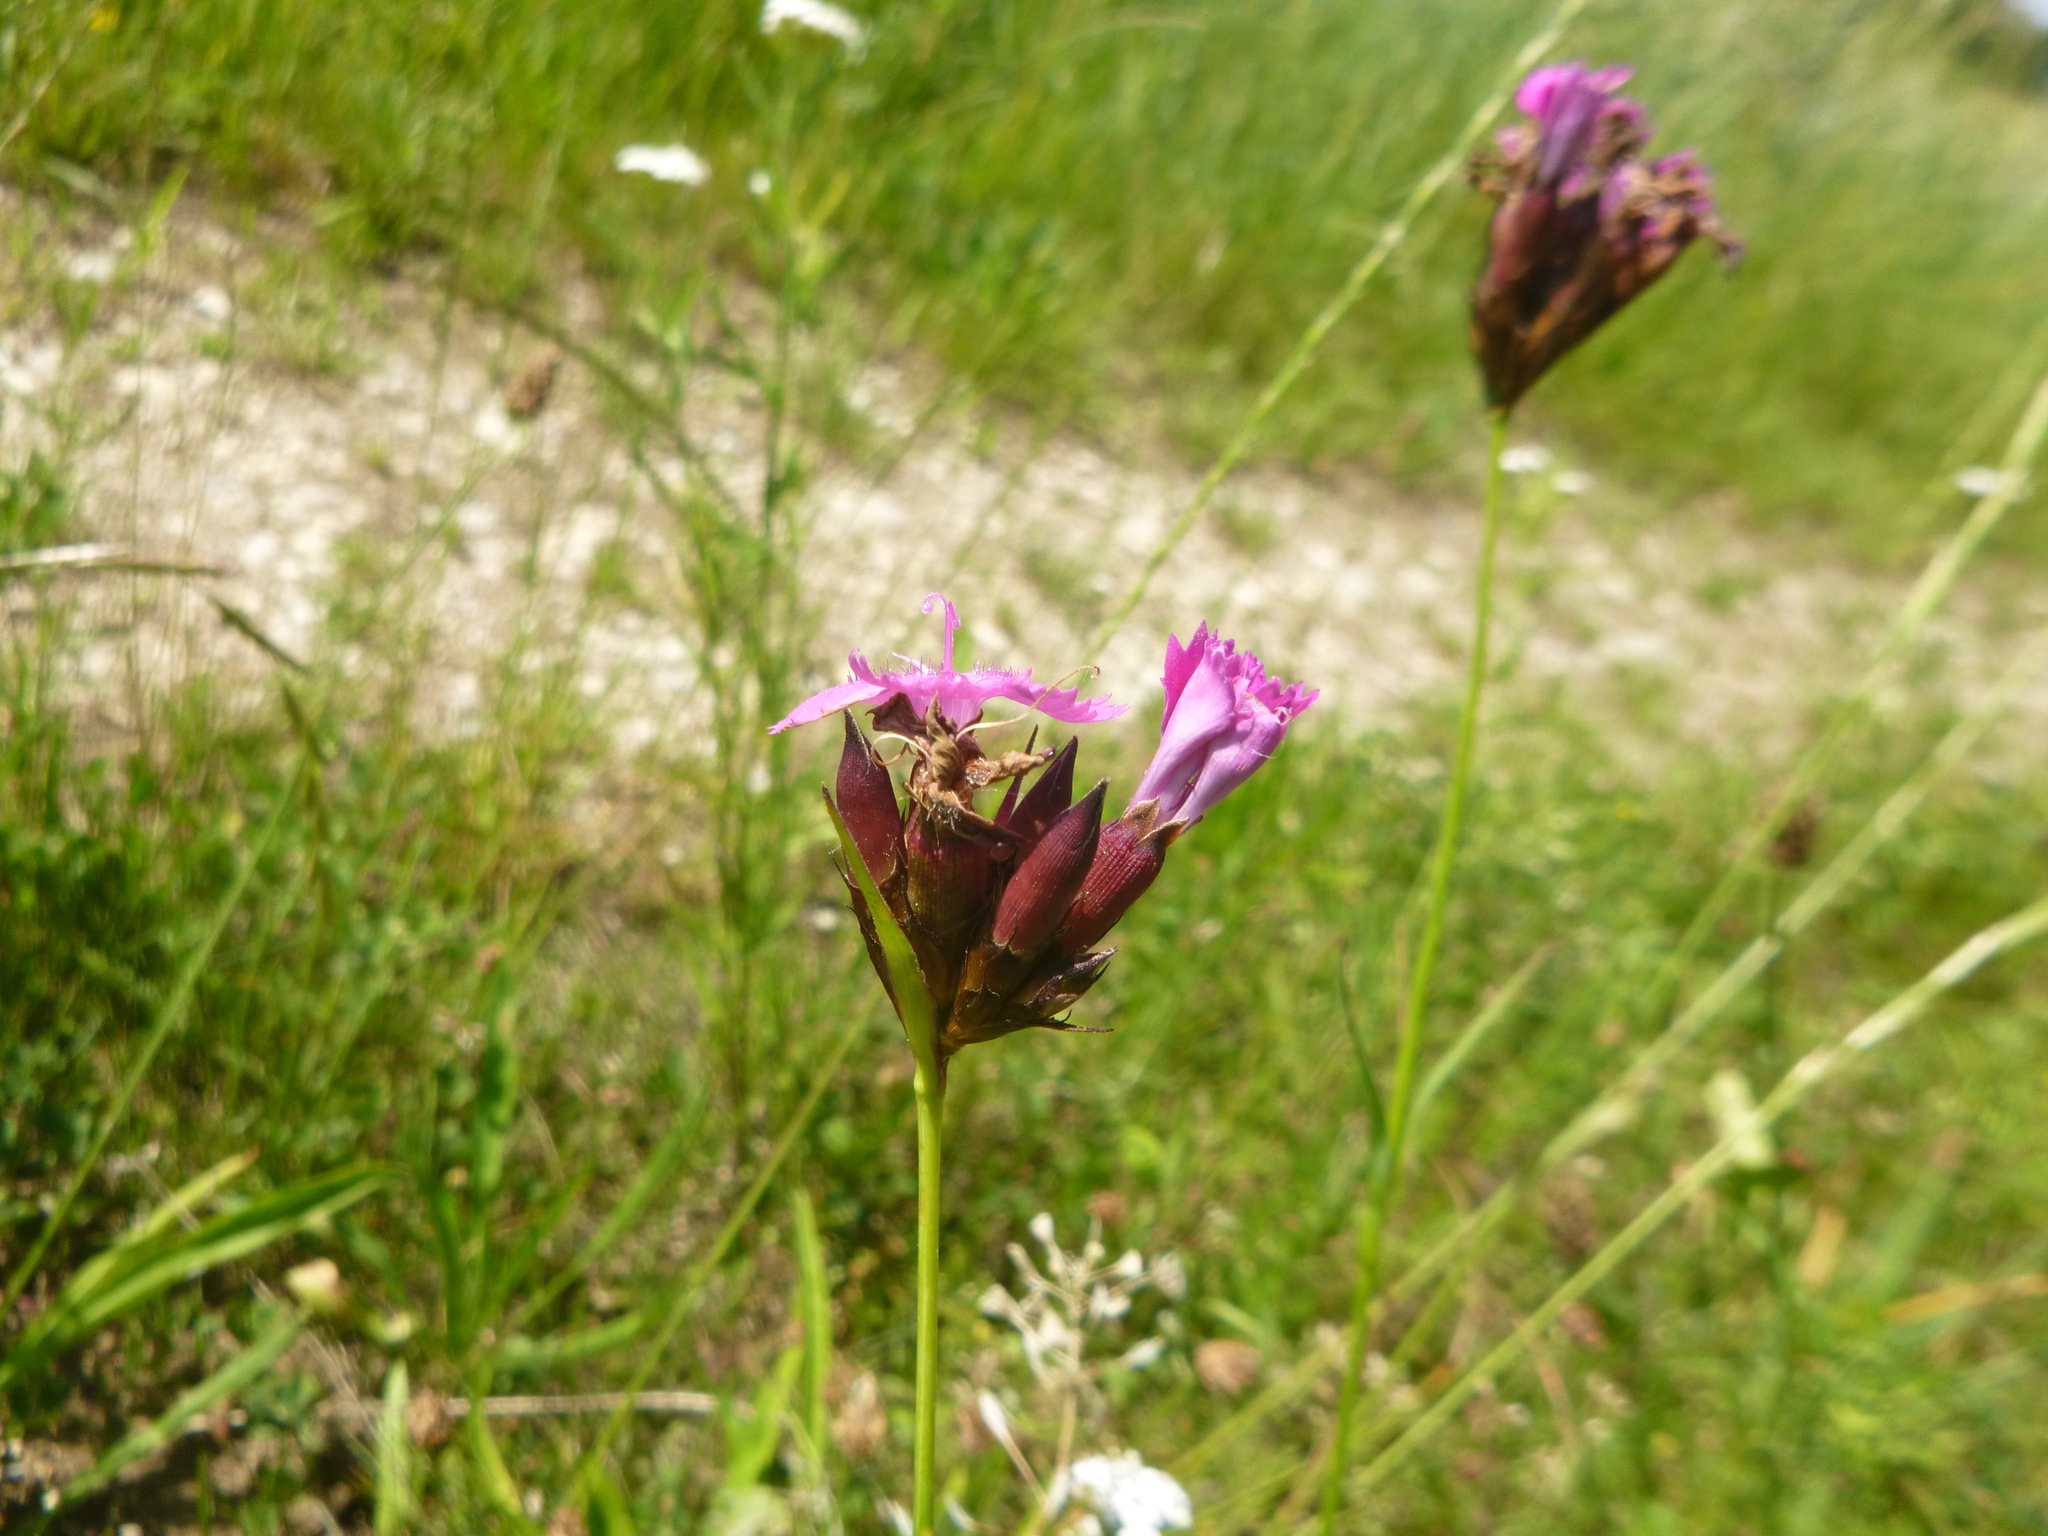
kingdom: Plantae
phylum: Tracheophyta
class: Magnoliopsida
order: Caryophyllales
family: Caryophyllaceae
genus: Dianthus
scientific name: Dianthus carthusianorum
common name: Carthusian pink
